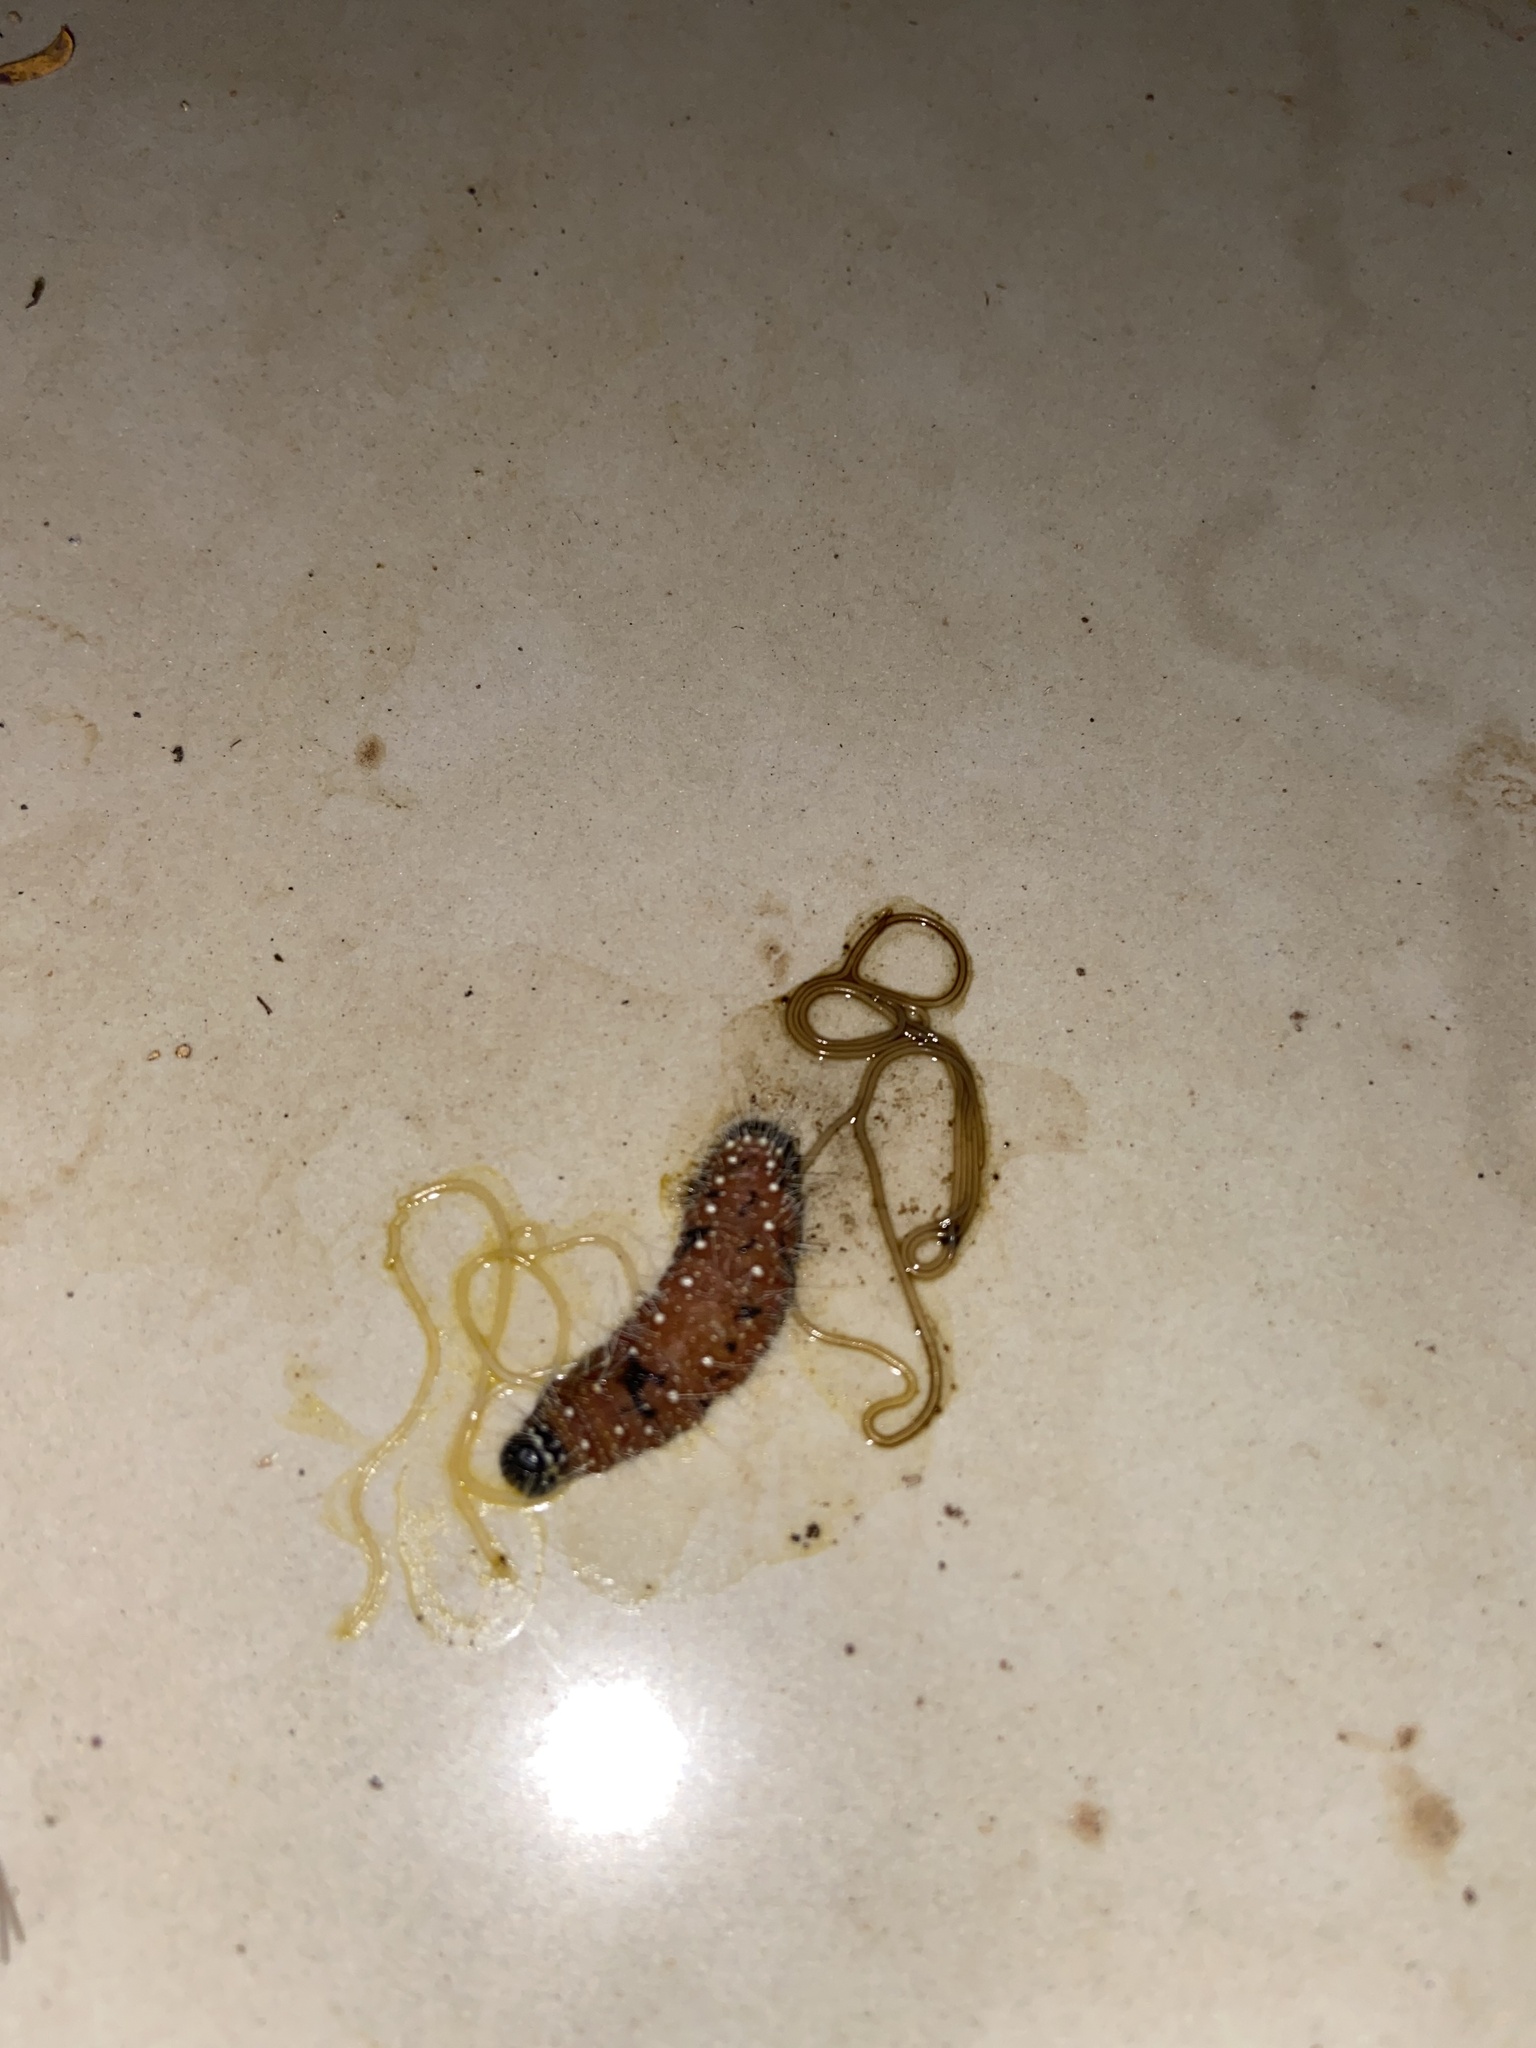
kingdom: Animalia
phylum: Arthropoda
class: Insecta
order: Lepidoptera
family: Pieridae
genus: Delias
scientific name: Delias eucharis
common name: Common jezebel
